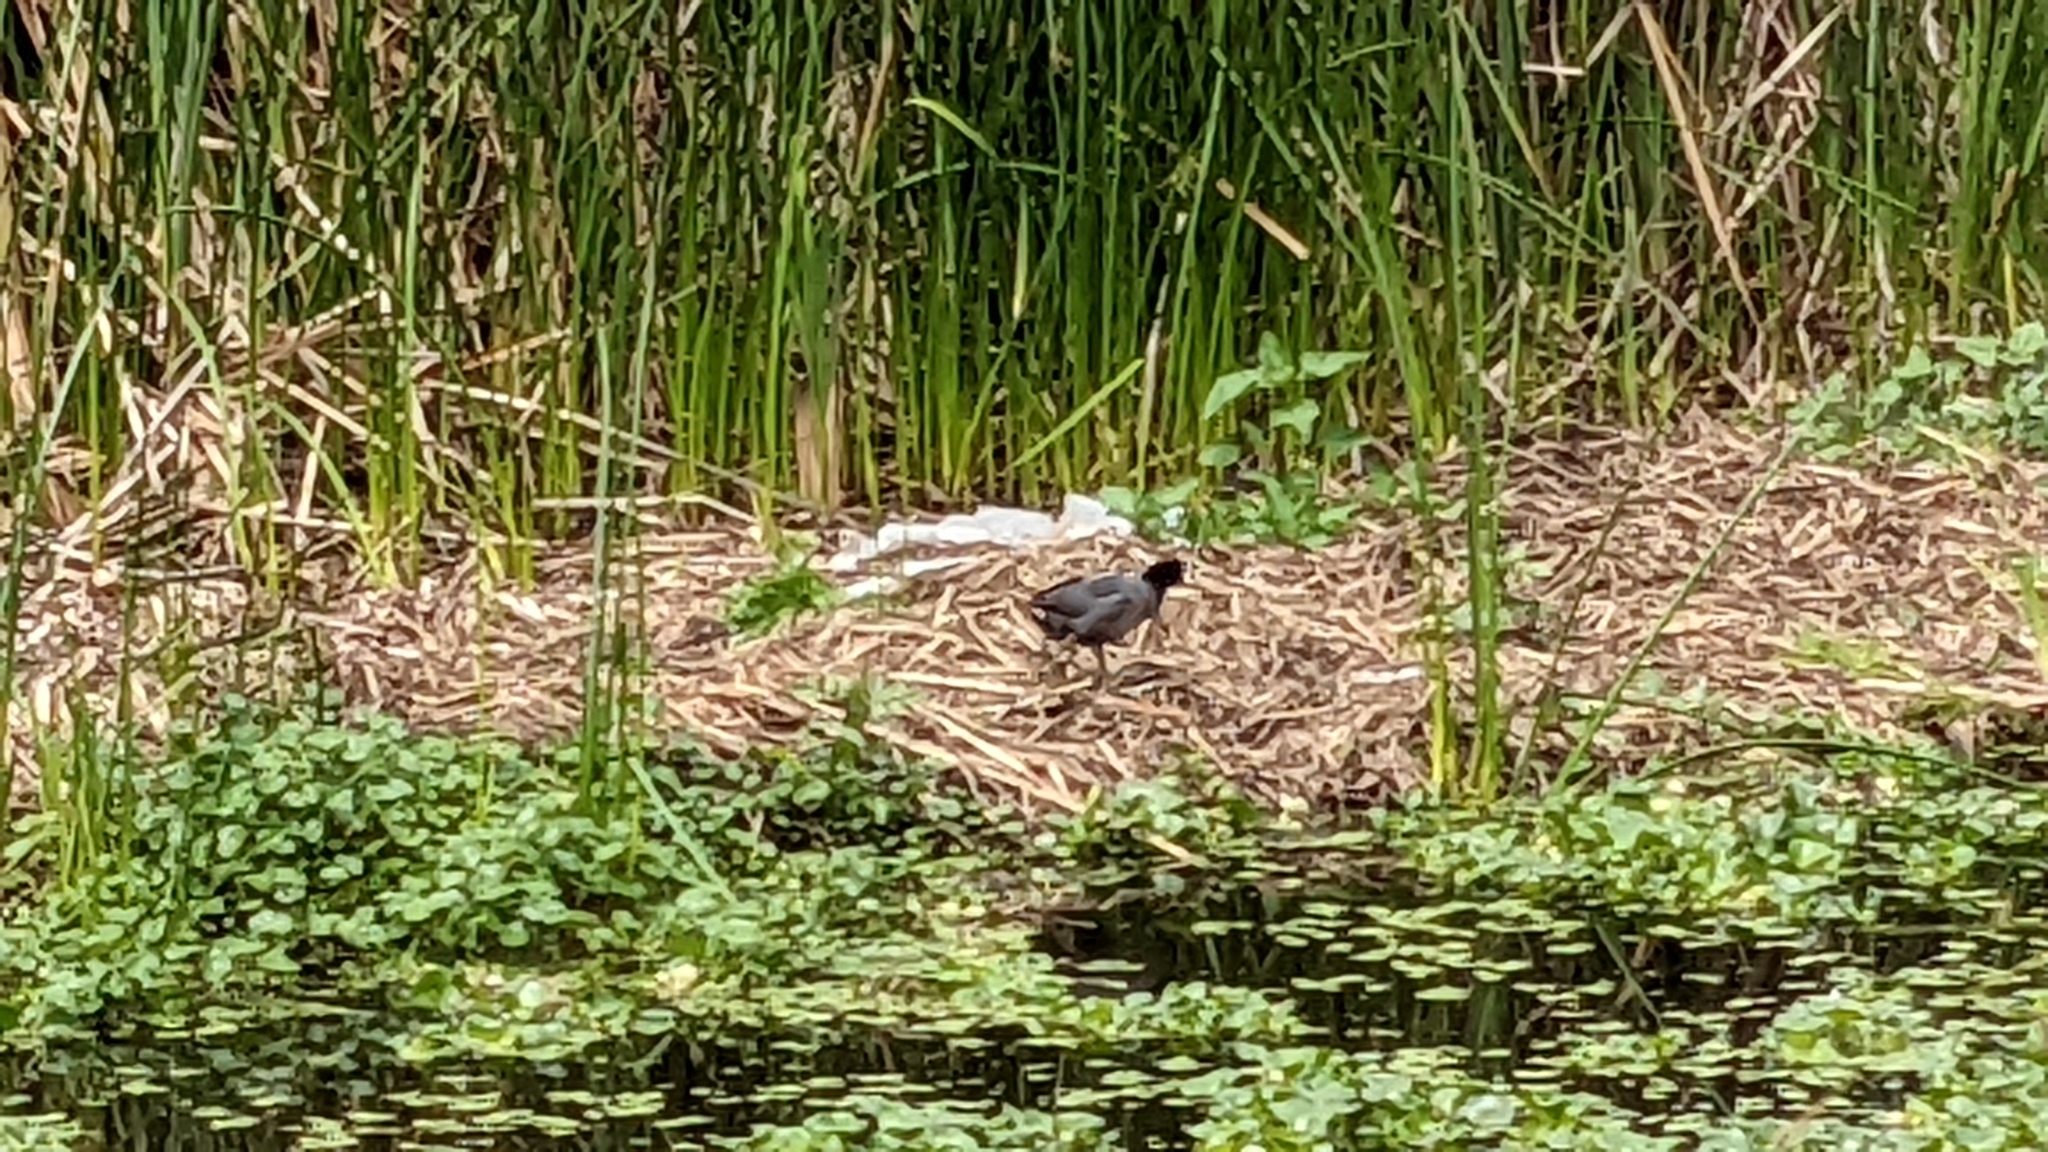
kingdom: Animalia
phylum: Chordata
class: Aves
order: Gruiformes
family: Rallidae
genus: Fulica
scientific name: Fulica americana
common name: American coot
